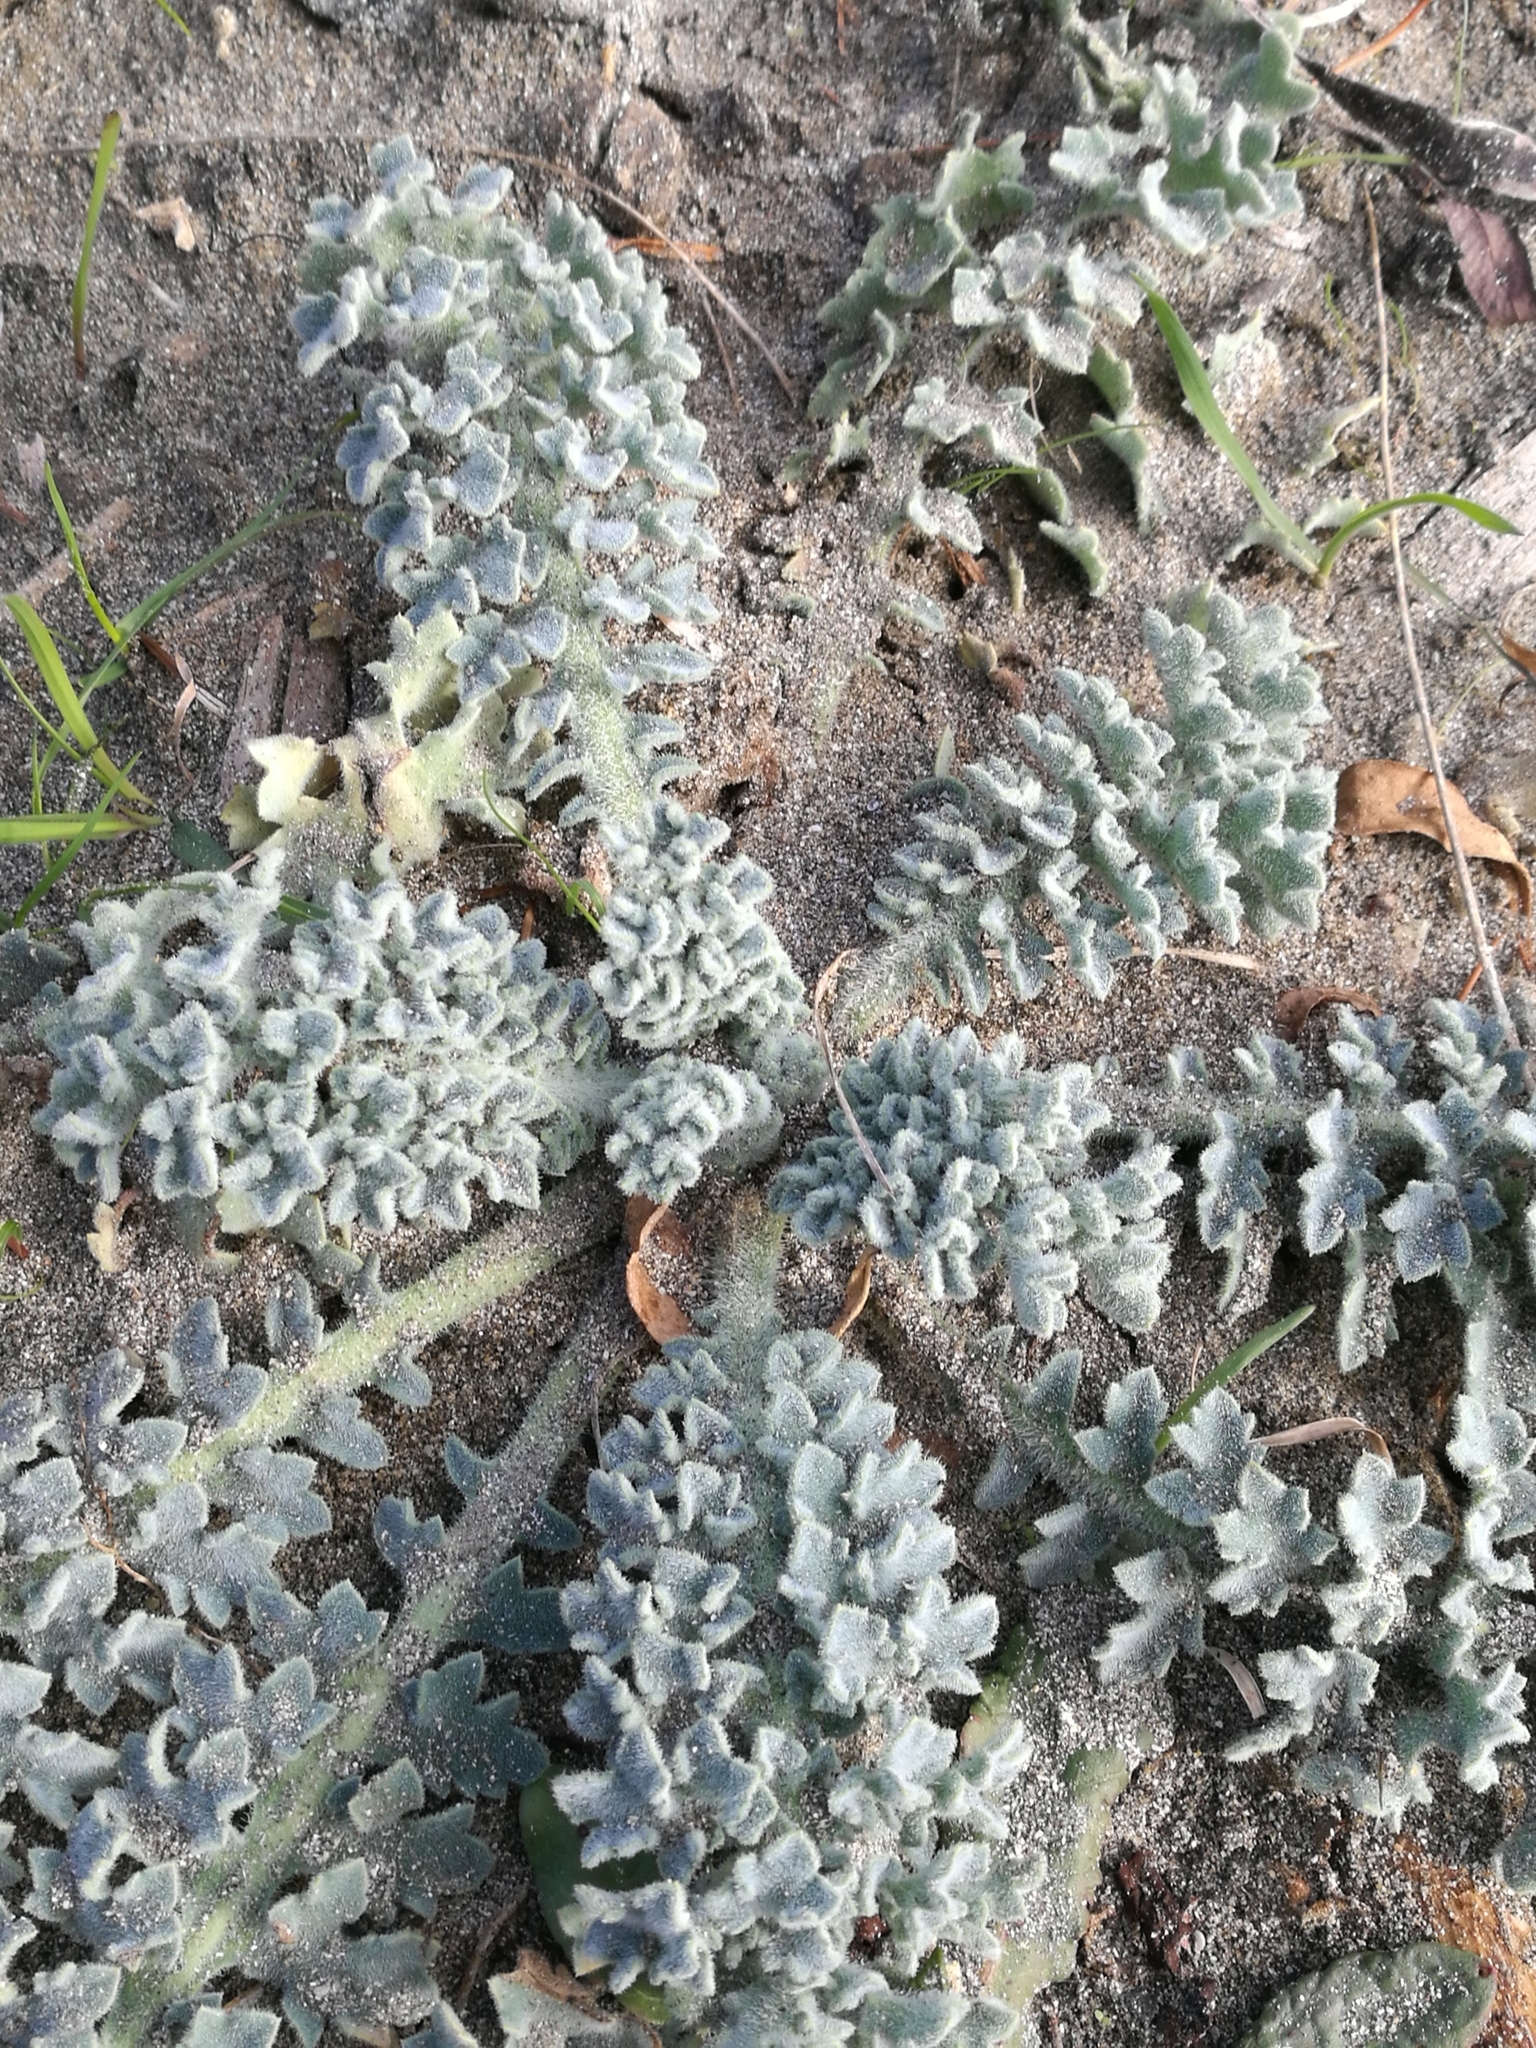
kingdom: Plantae
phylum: Tracheophyta
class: Magnoliopsida
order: Ranunculales
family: Papaveraceae
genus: Glaucium
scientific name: Glaucium flavum
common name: Yellow horned-poppy
